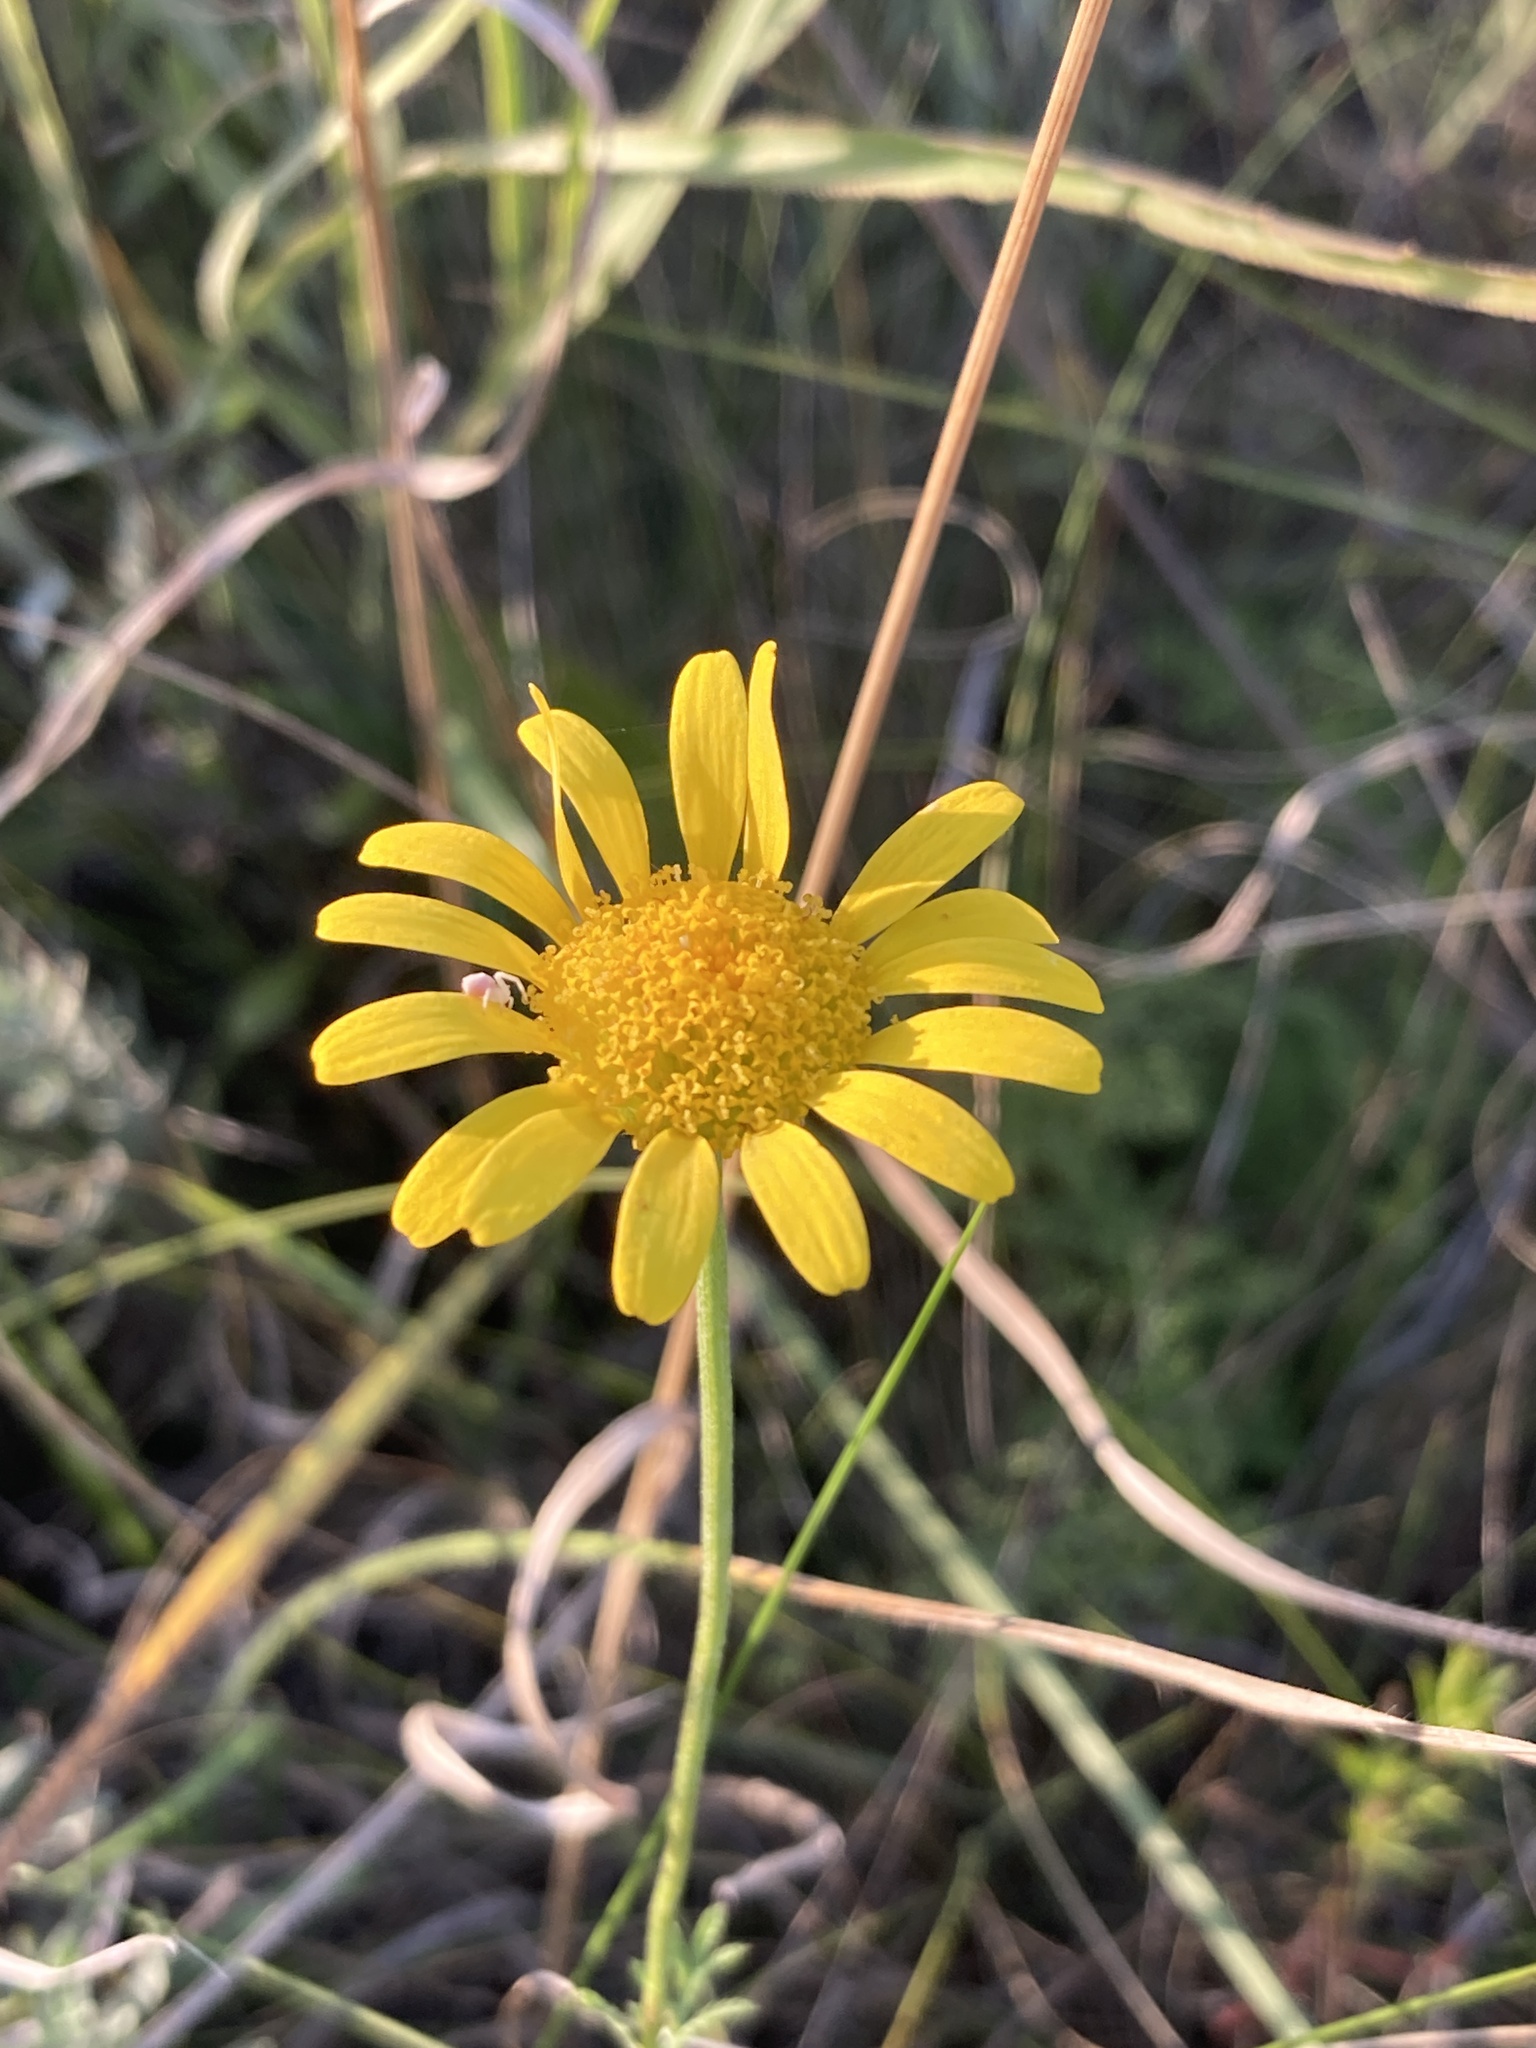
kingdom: Plantae
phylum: Tracheophyta
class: Magnoliopsida
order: Asterales
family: Asteraceae
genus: Cota
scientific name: Cota tinctoria
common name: Golden chamomile
